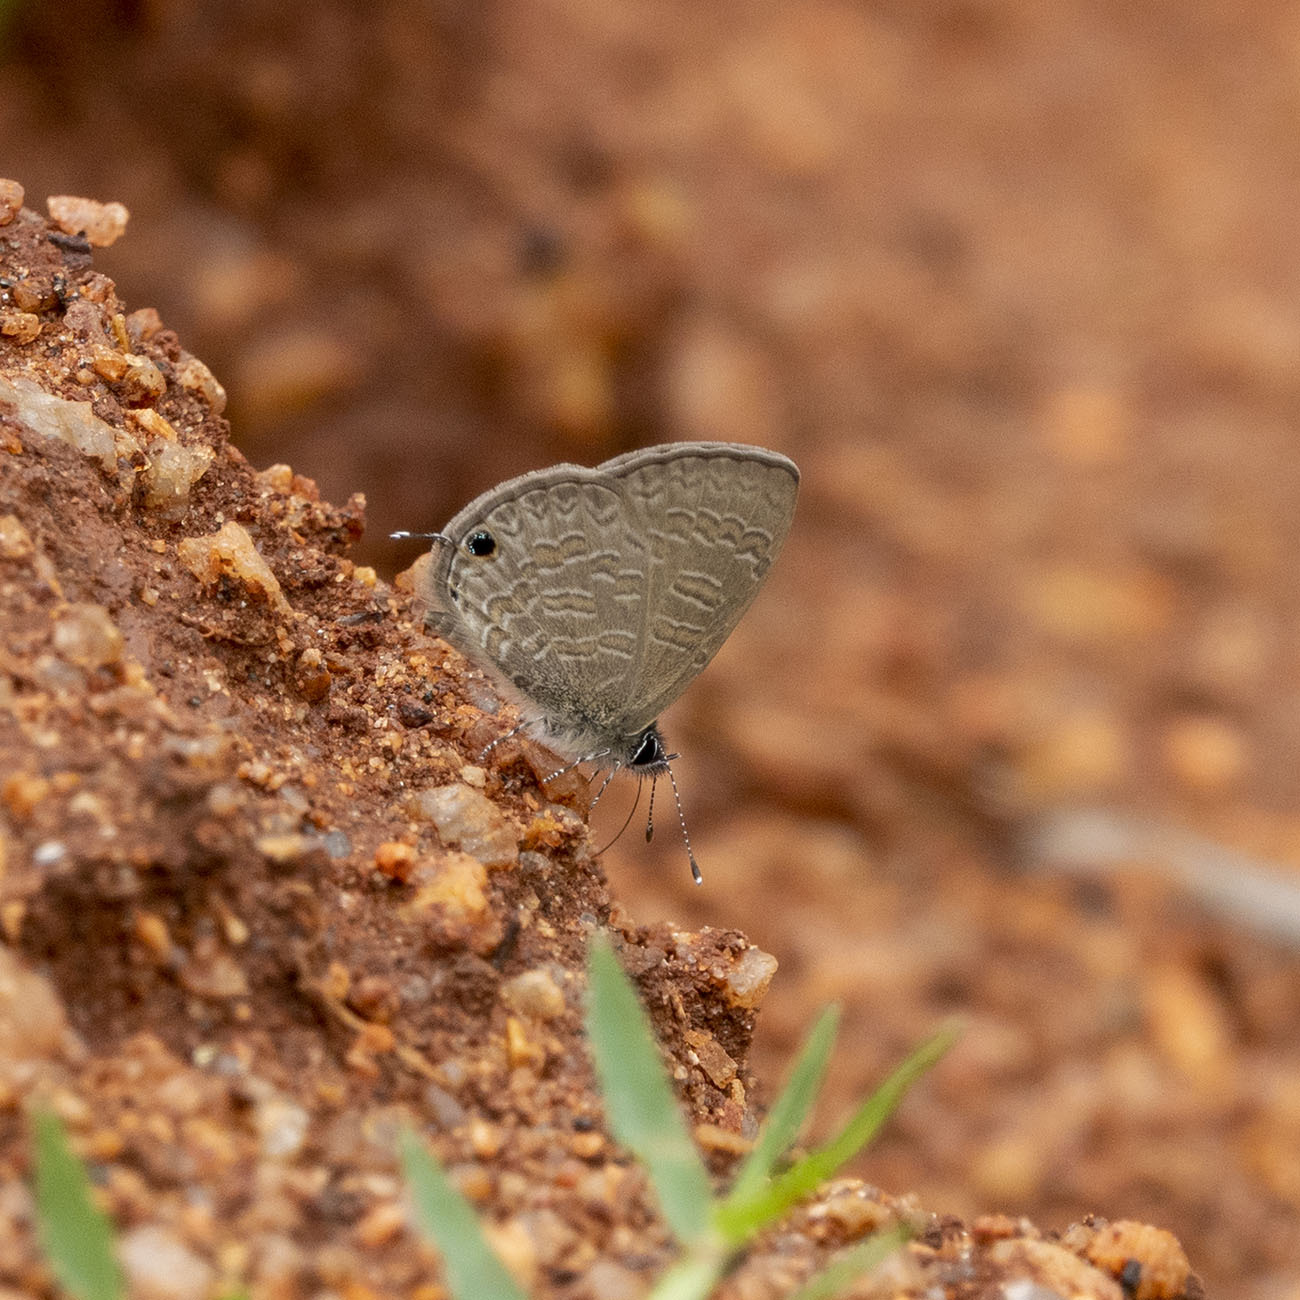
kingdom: Animalia
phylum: Arthropoda
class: Insecta
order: Lepidoptera
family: Lycaenidae
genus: Prosotas
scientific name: Prosotas nora
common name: Common line blue
